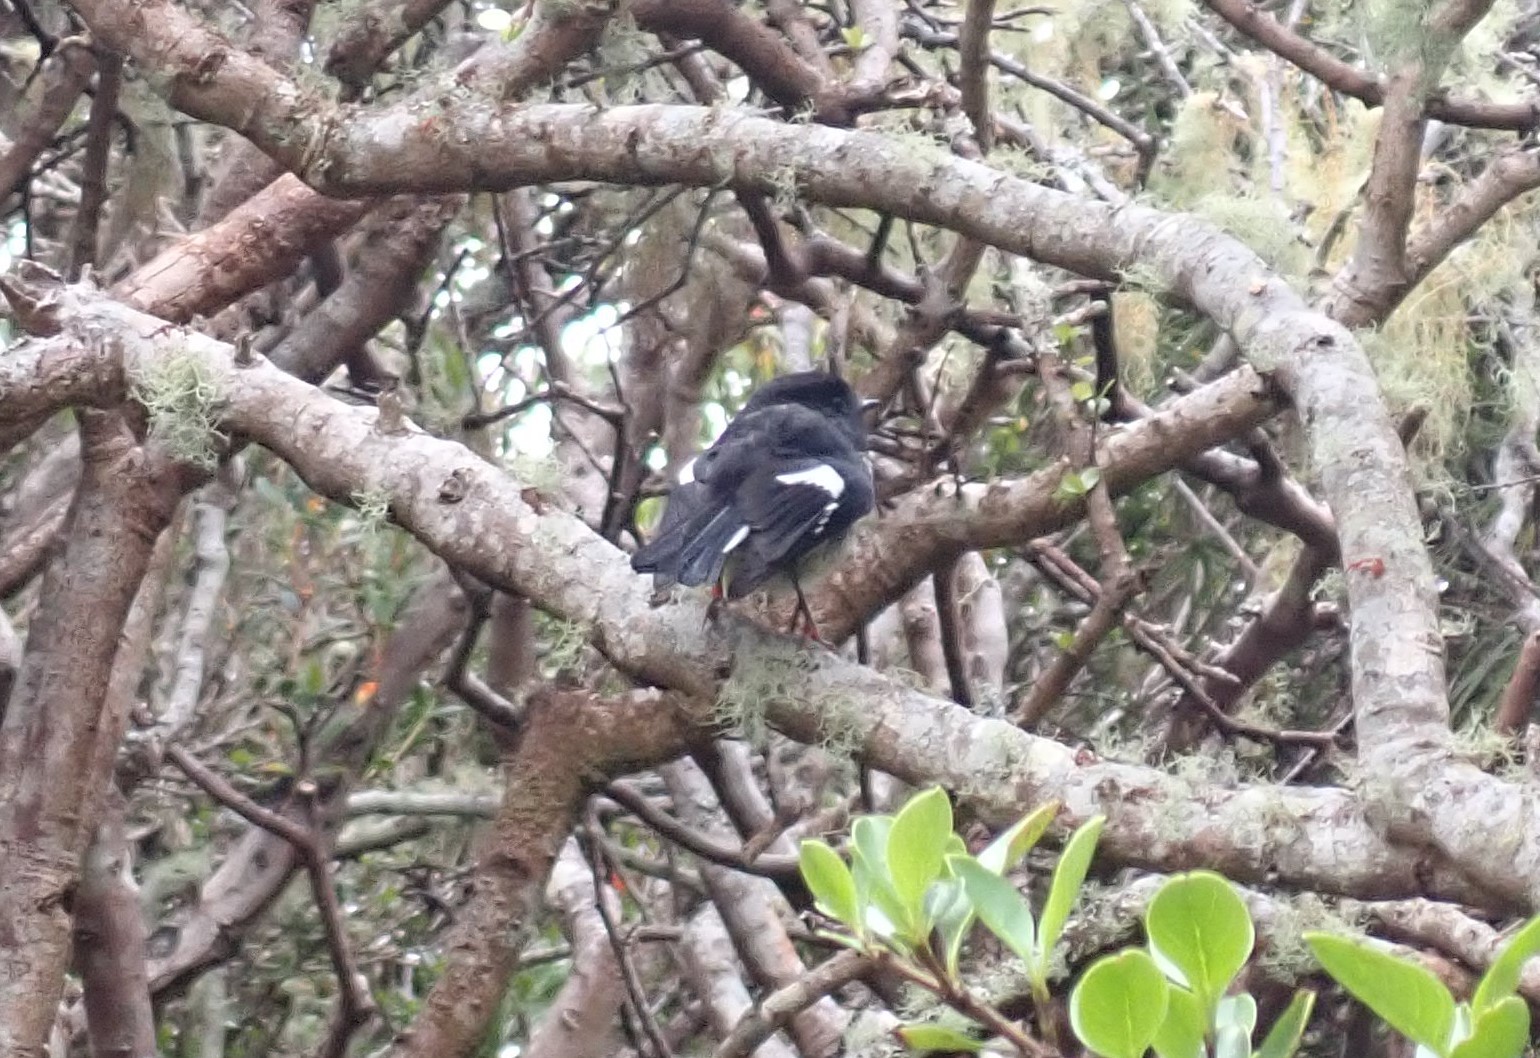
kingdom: Animalia
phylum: Chordata
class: Aves
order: Passeriformes
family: Petroicidae
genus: Petroica
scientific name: Petroica macrocephala
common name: Tomtit
